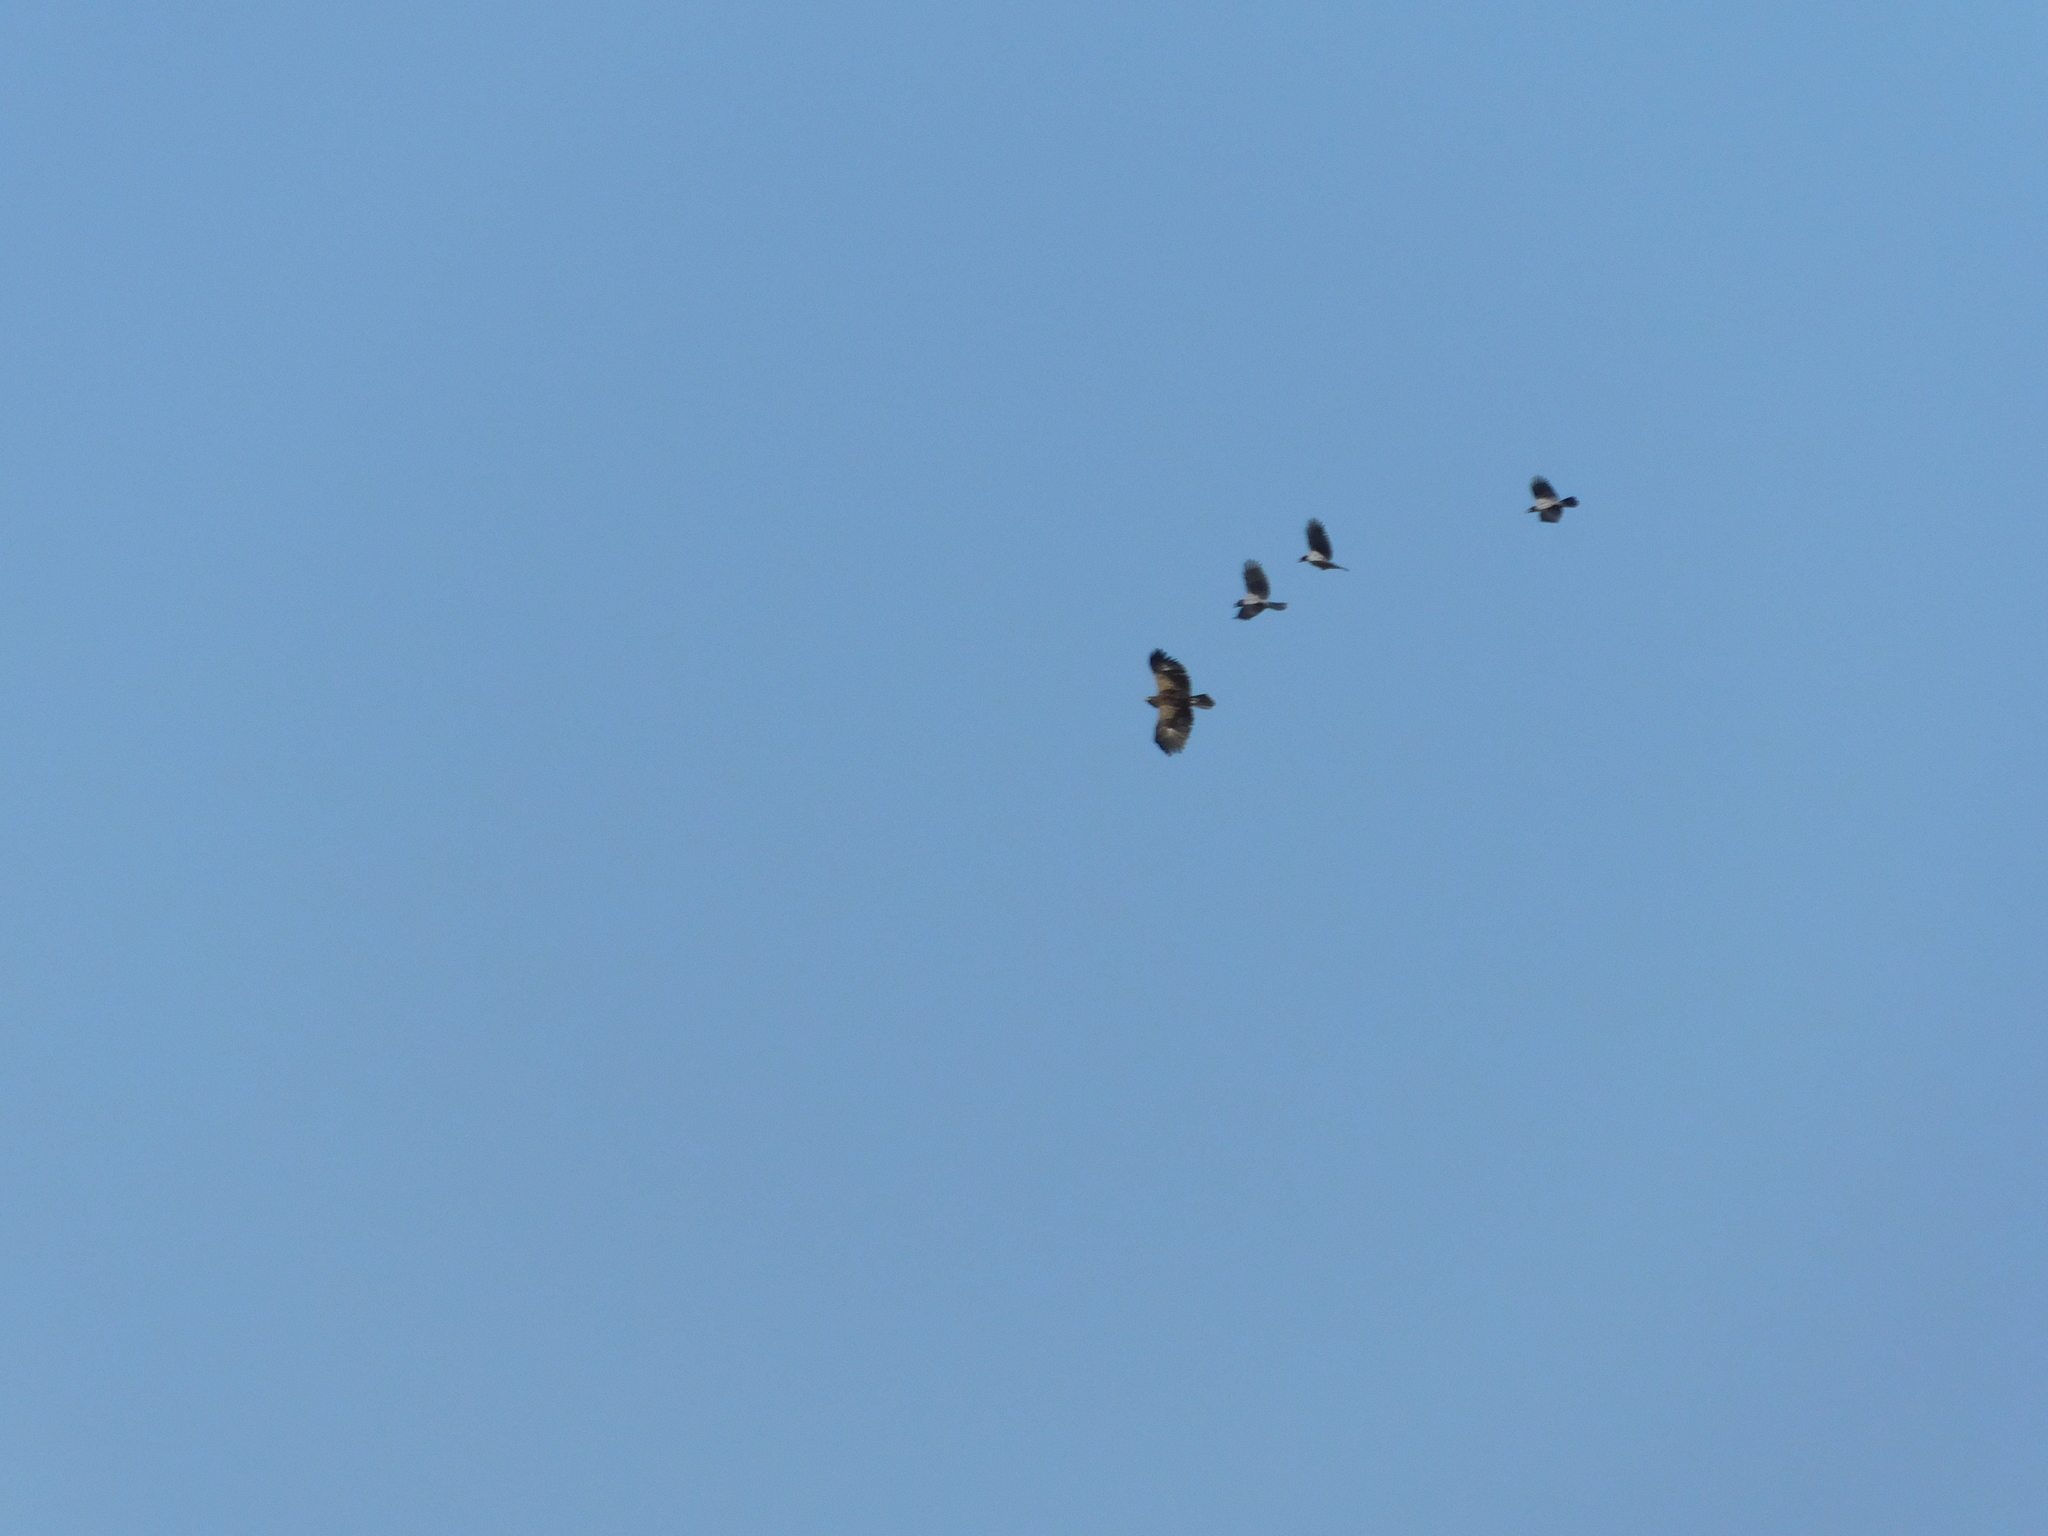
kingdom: Animalia
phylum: Chordata
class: Aves
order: Accipitriformes
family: Accipitridae
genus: Aquila
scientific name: Aquila pomarina
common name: Lesser spotted eagle
